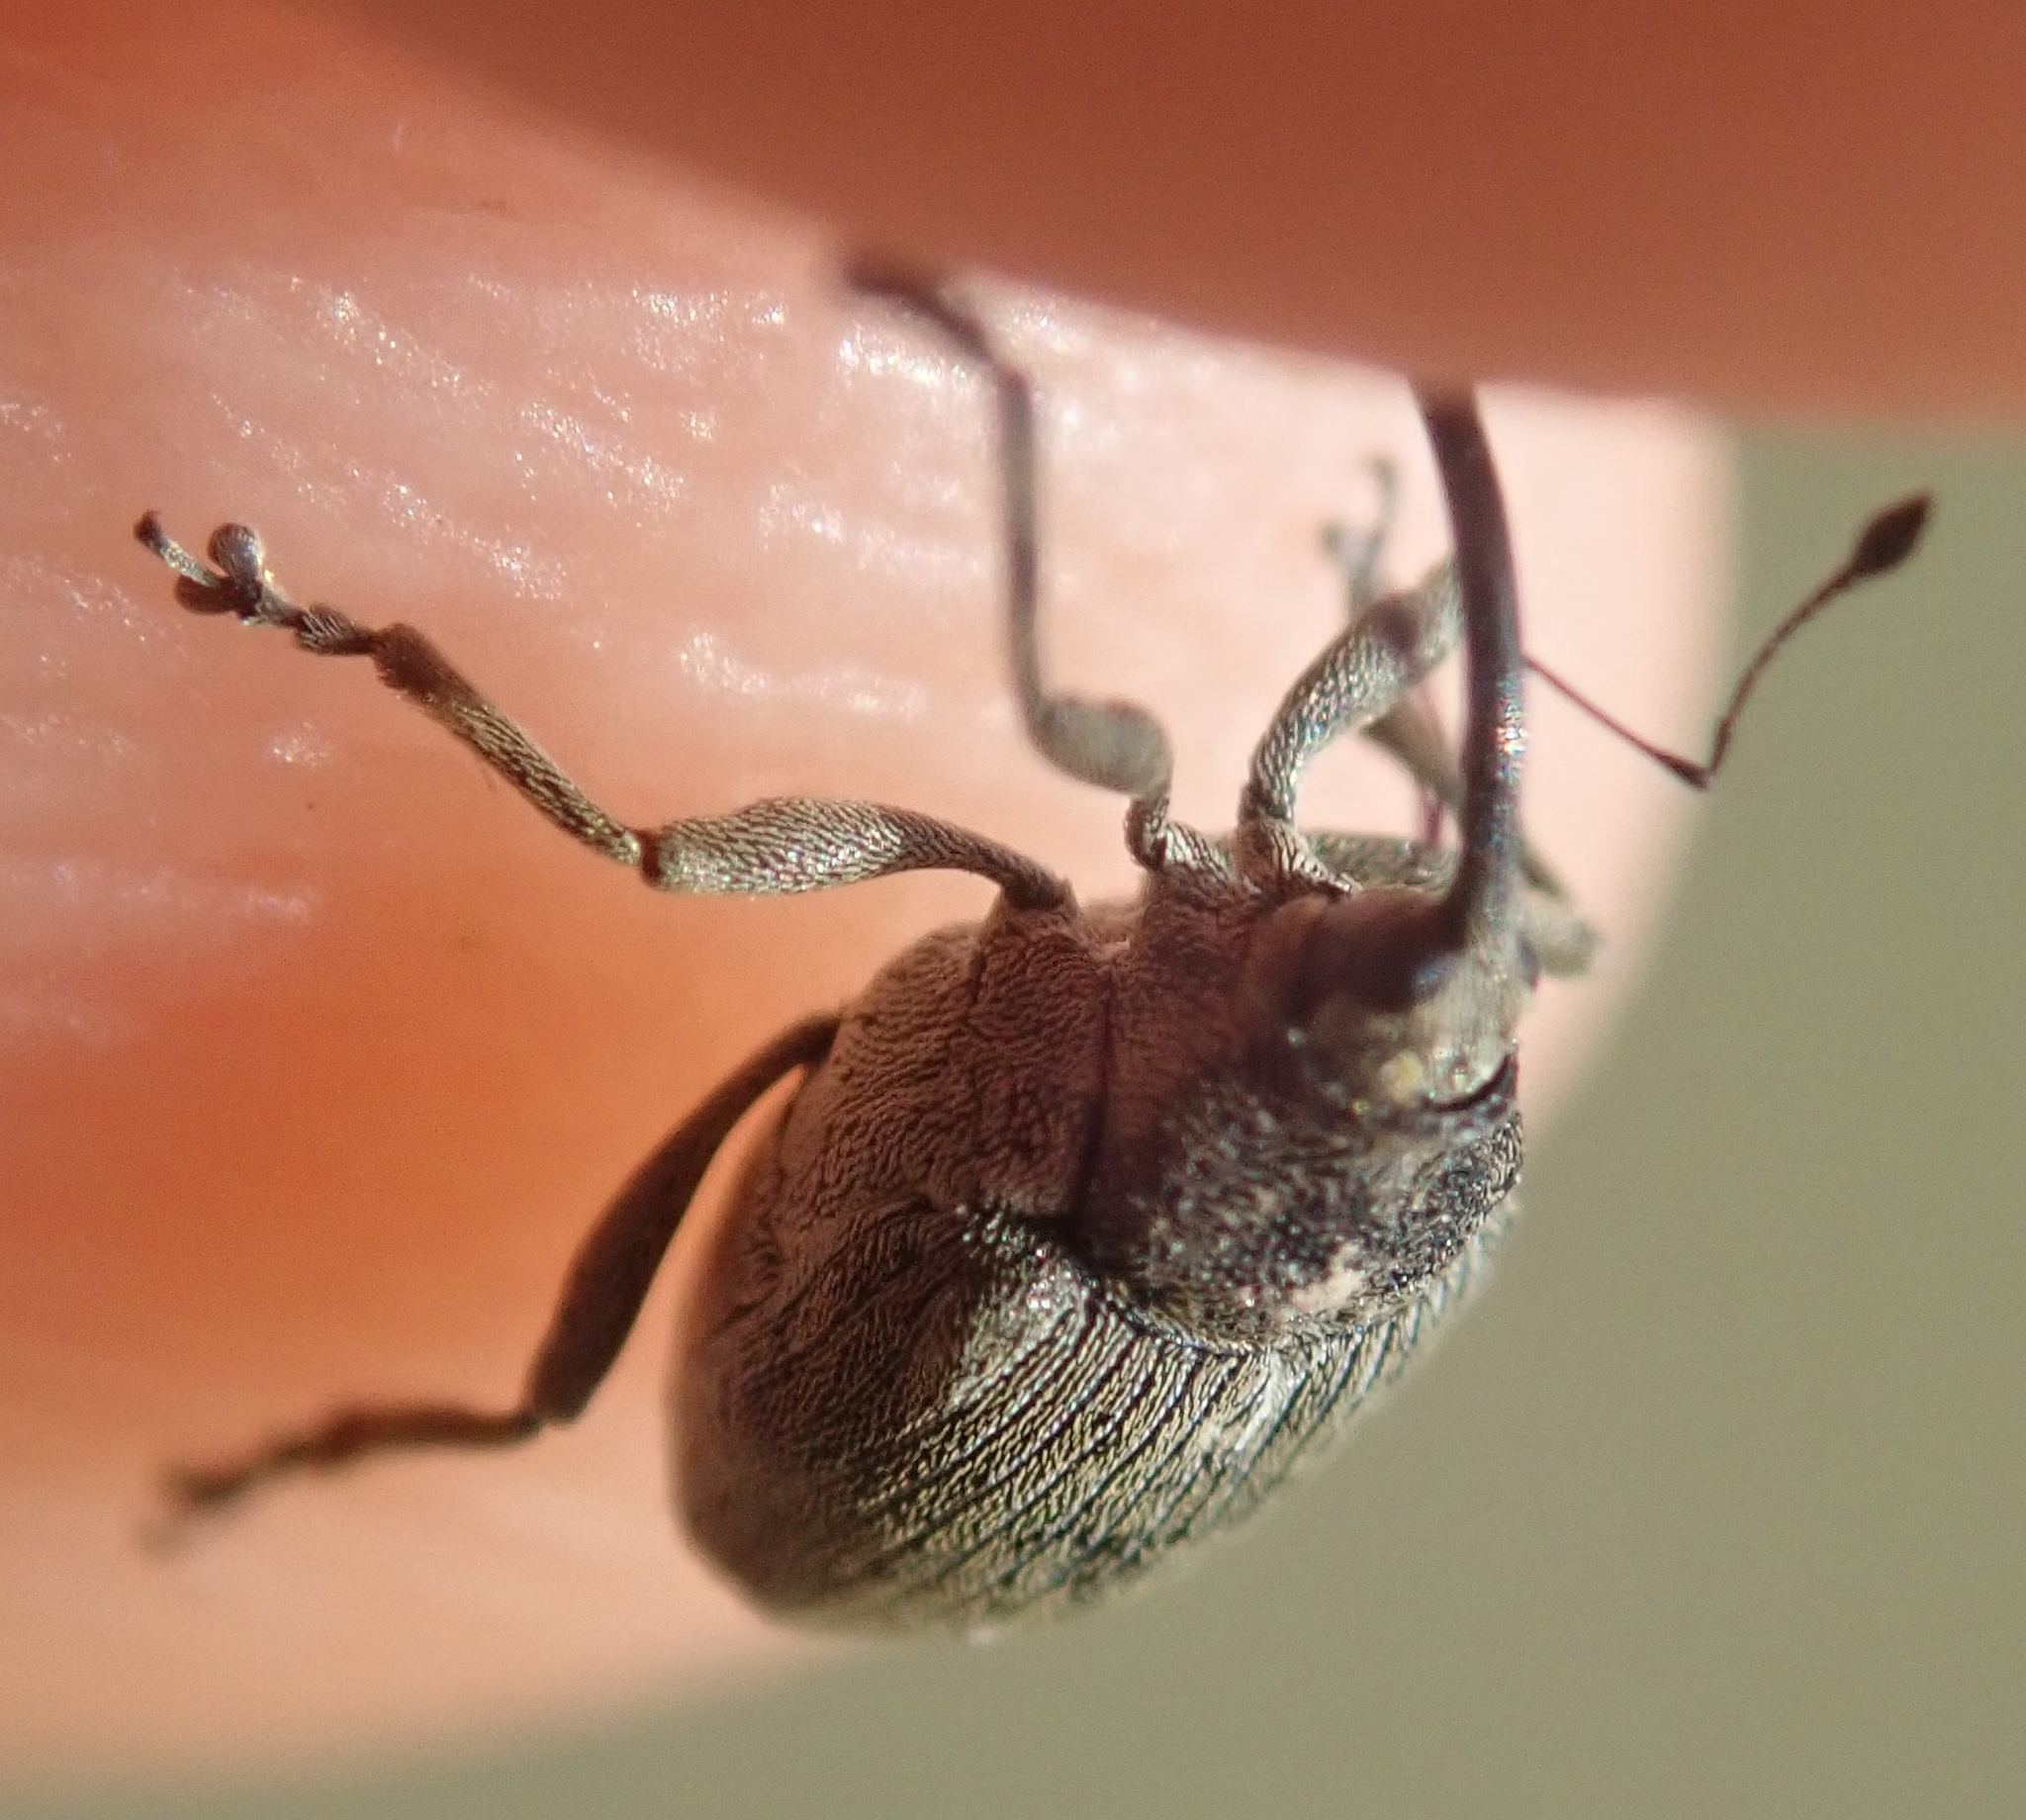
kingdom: Animalia
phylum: Arthropoda
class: Insecta
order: Coleoptera
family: Curculionidae
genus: Ceutorhynchus
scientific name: Ceutorhynchus napi
